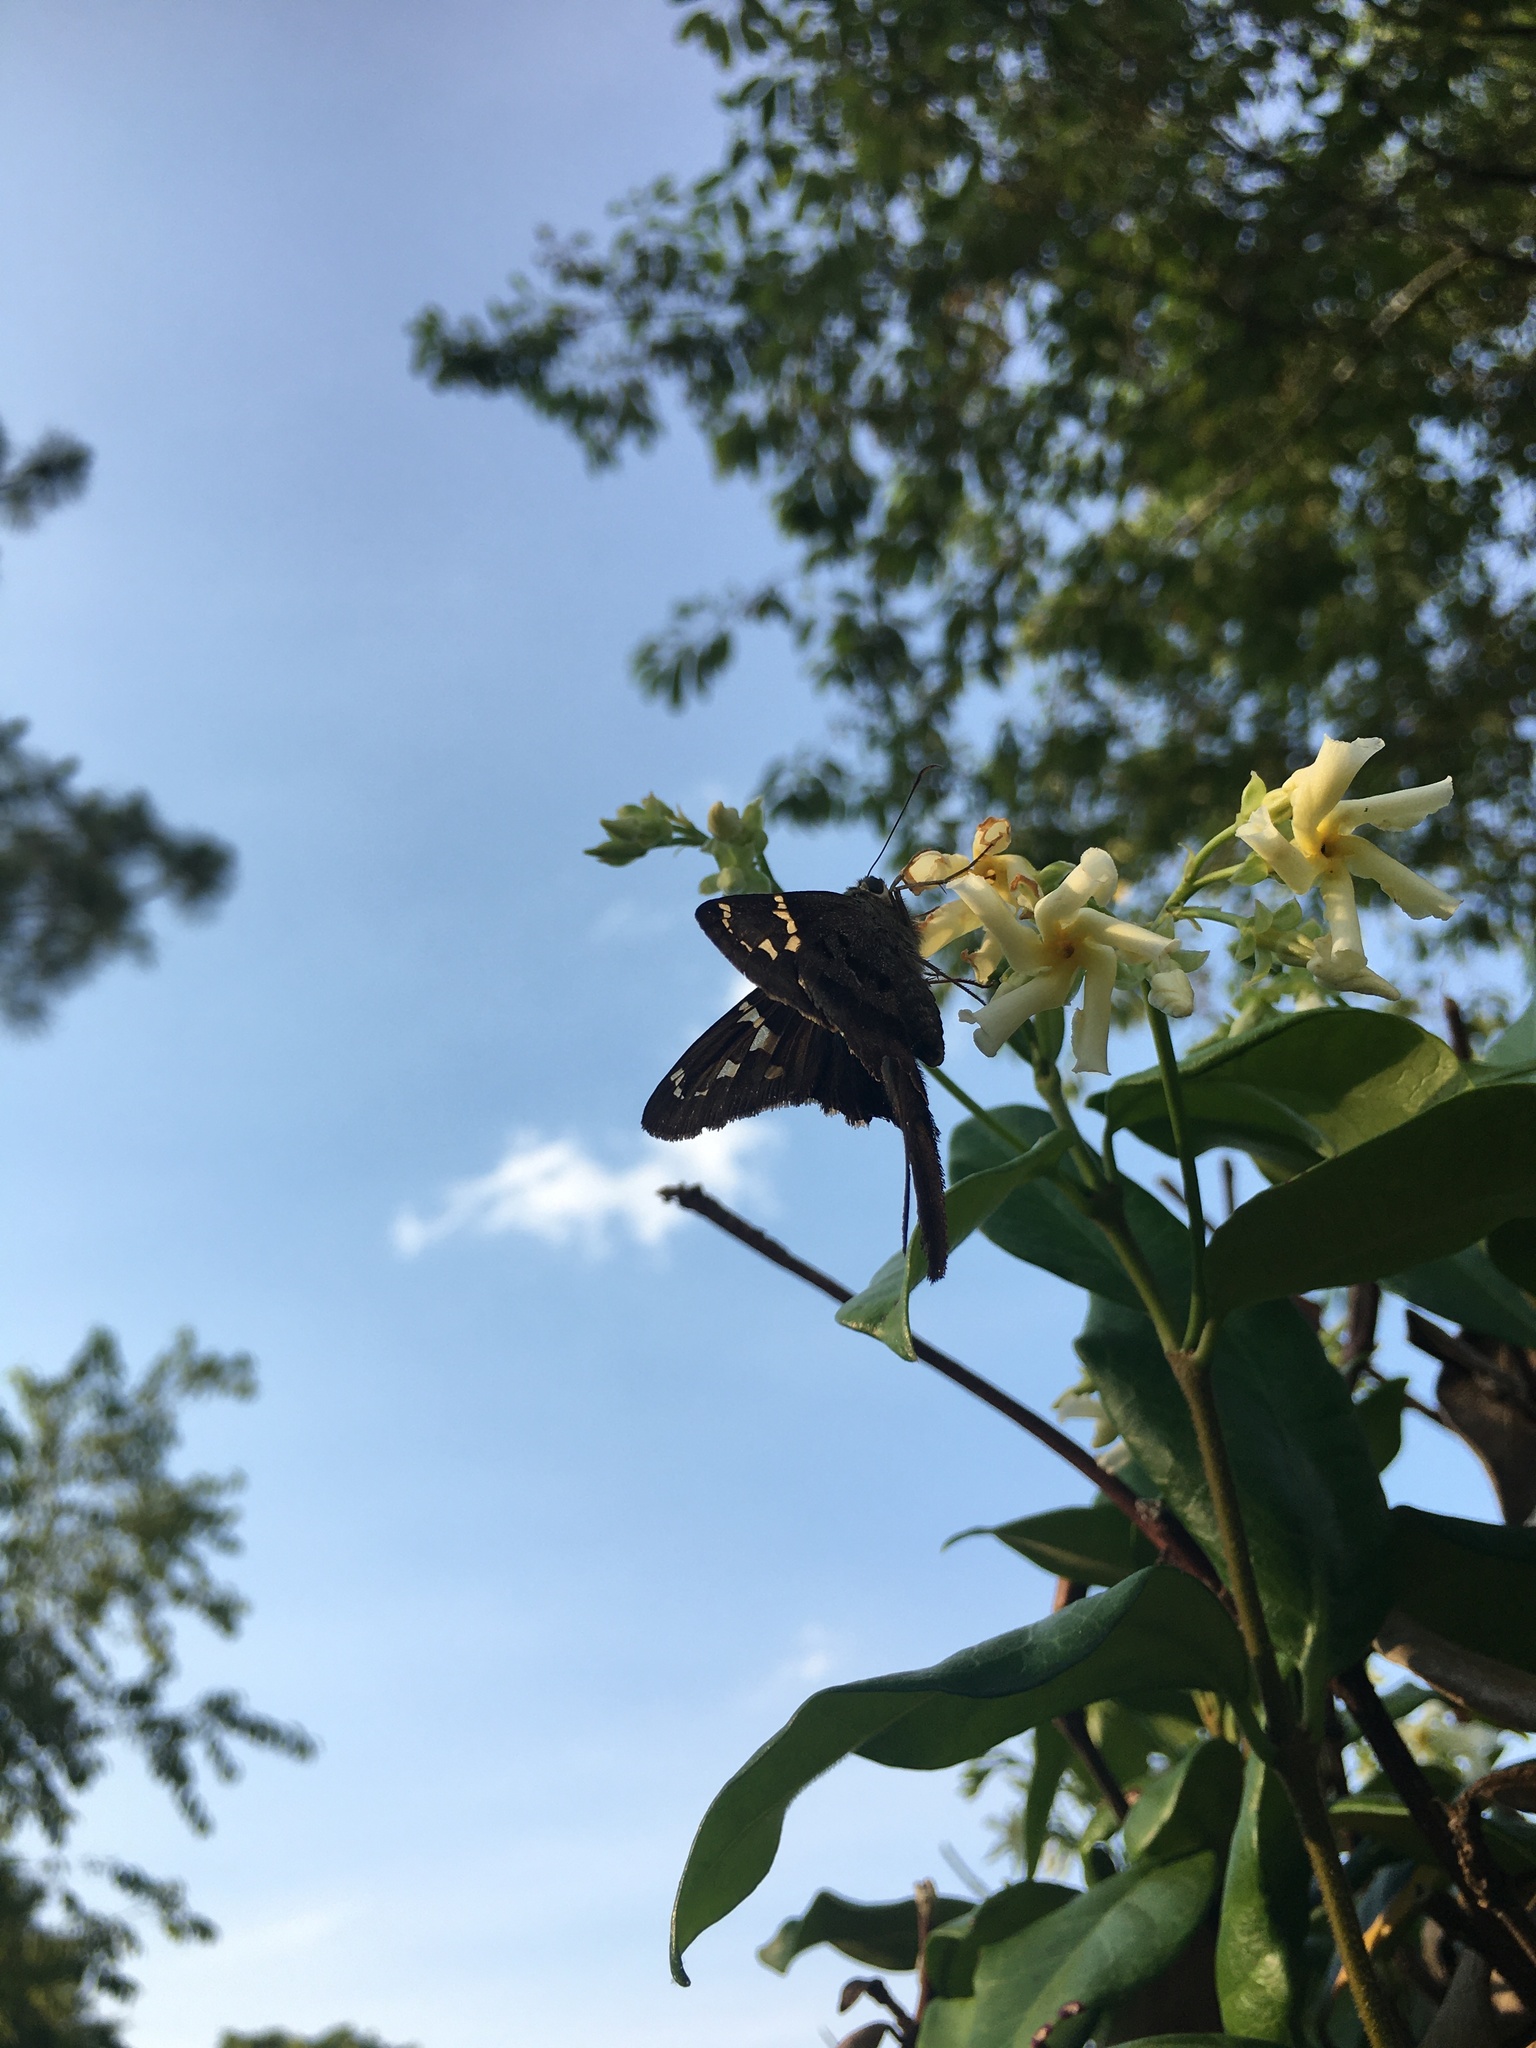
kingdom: Animalia
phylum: Arthropoda
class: Insecta
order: Lepidoptera
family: Hesperiidae
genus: Urbanus
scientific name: Urbanus proteus
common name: Long-tailed skipper
